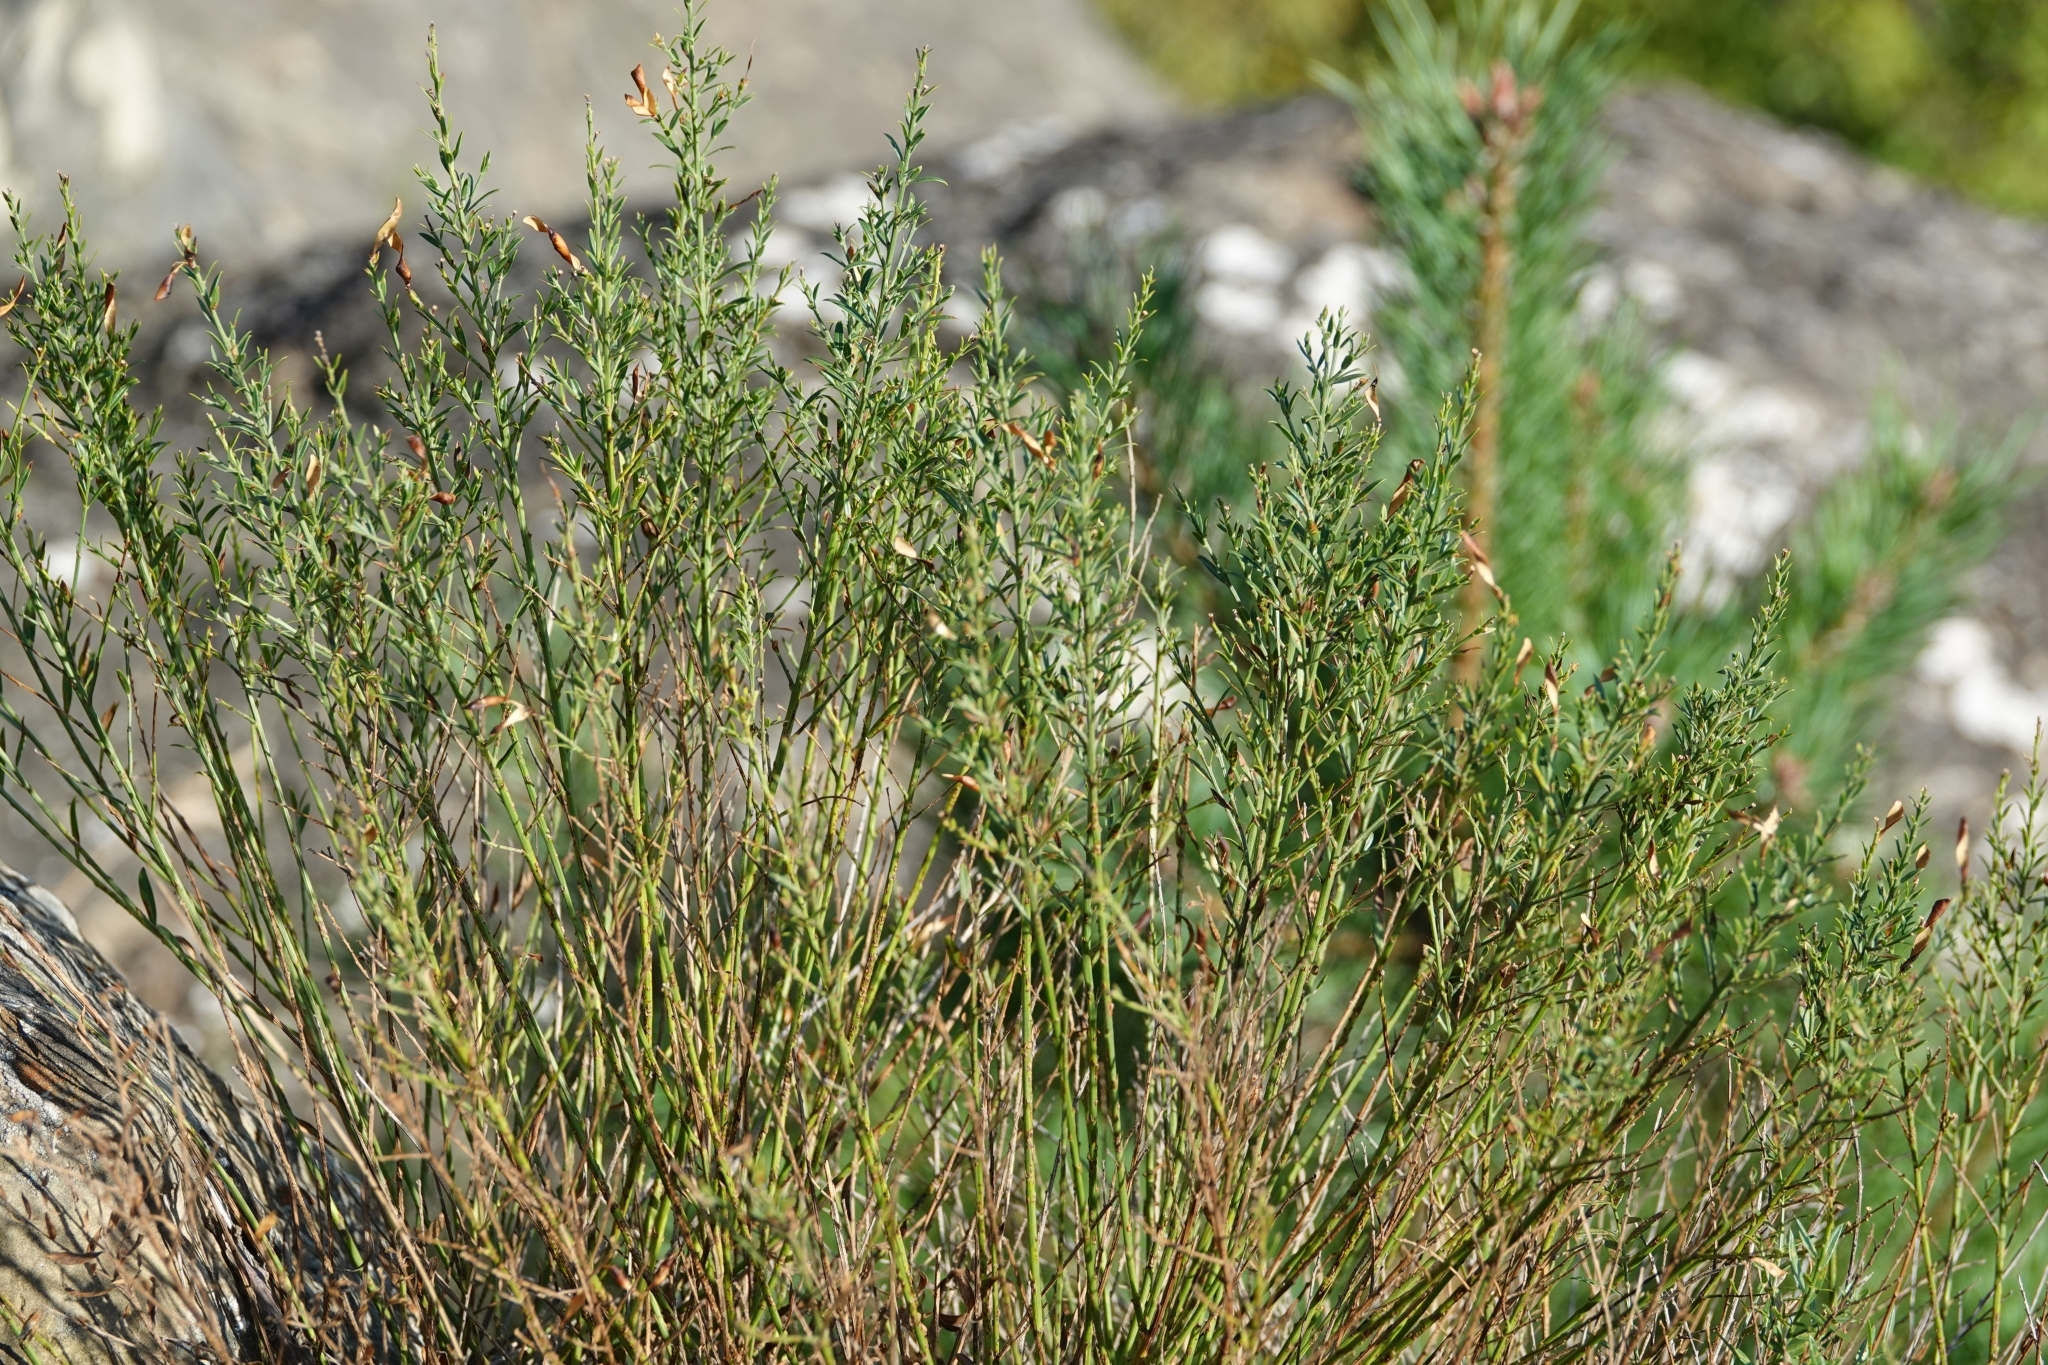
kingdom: Plantae
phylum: Tracheophyta
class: Magnoliopsida
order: Fabales
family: Fabaceae
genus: Genista
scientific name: Genista tinctoria
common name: Dyer's greenweed
